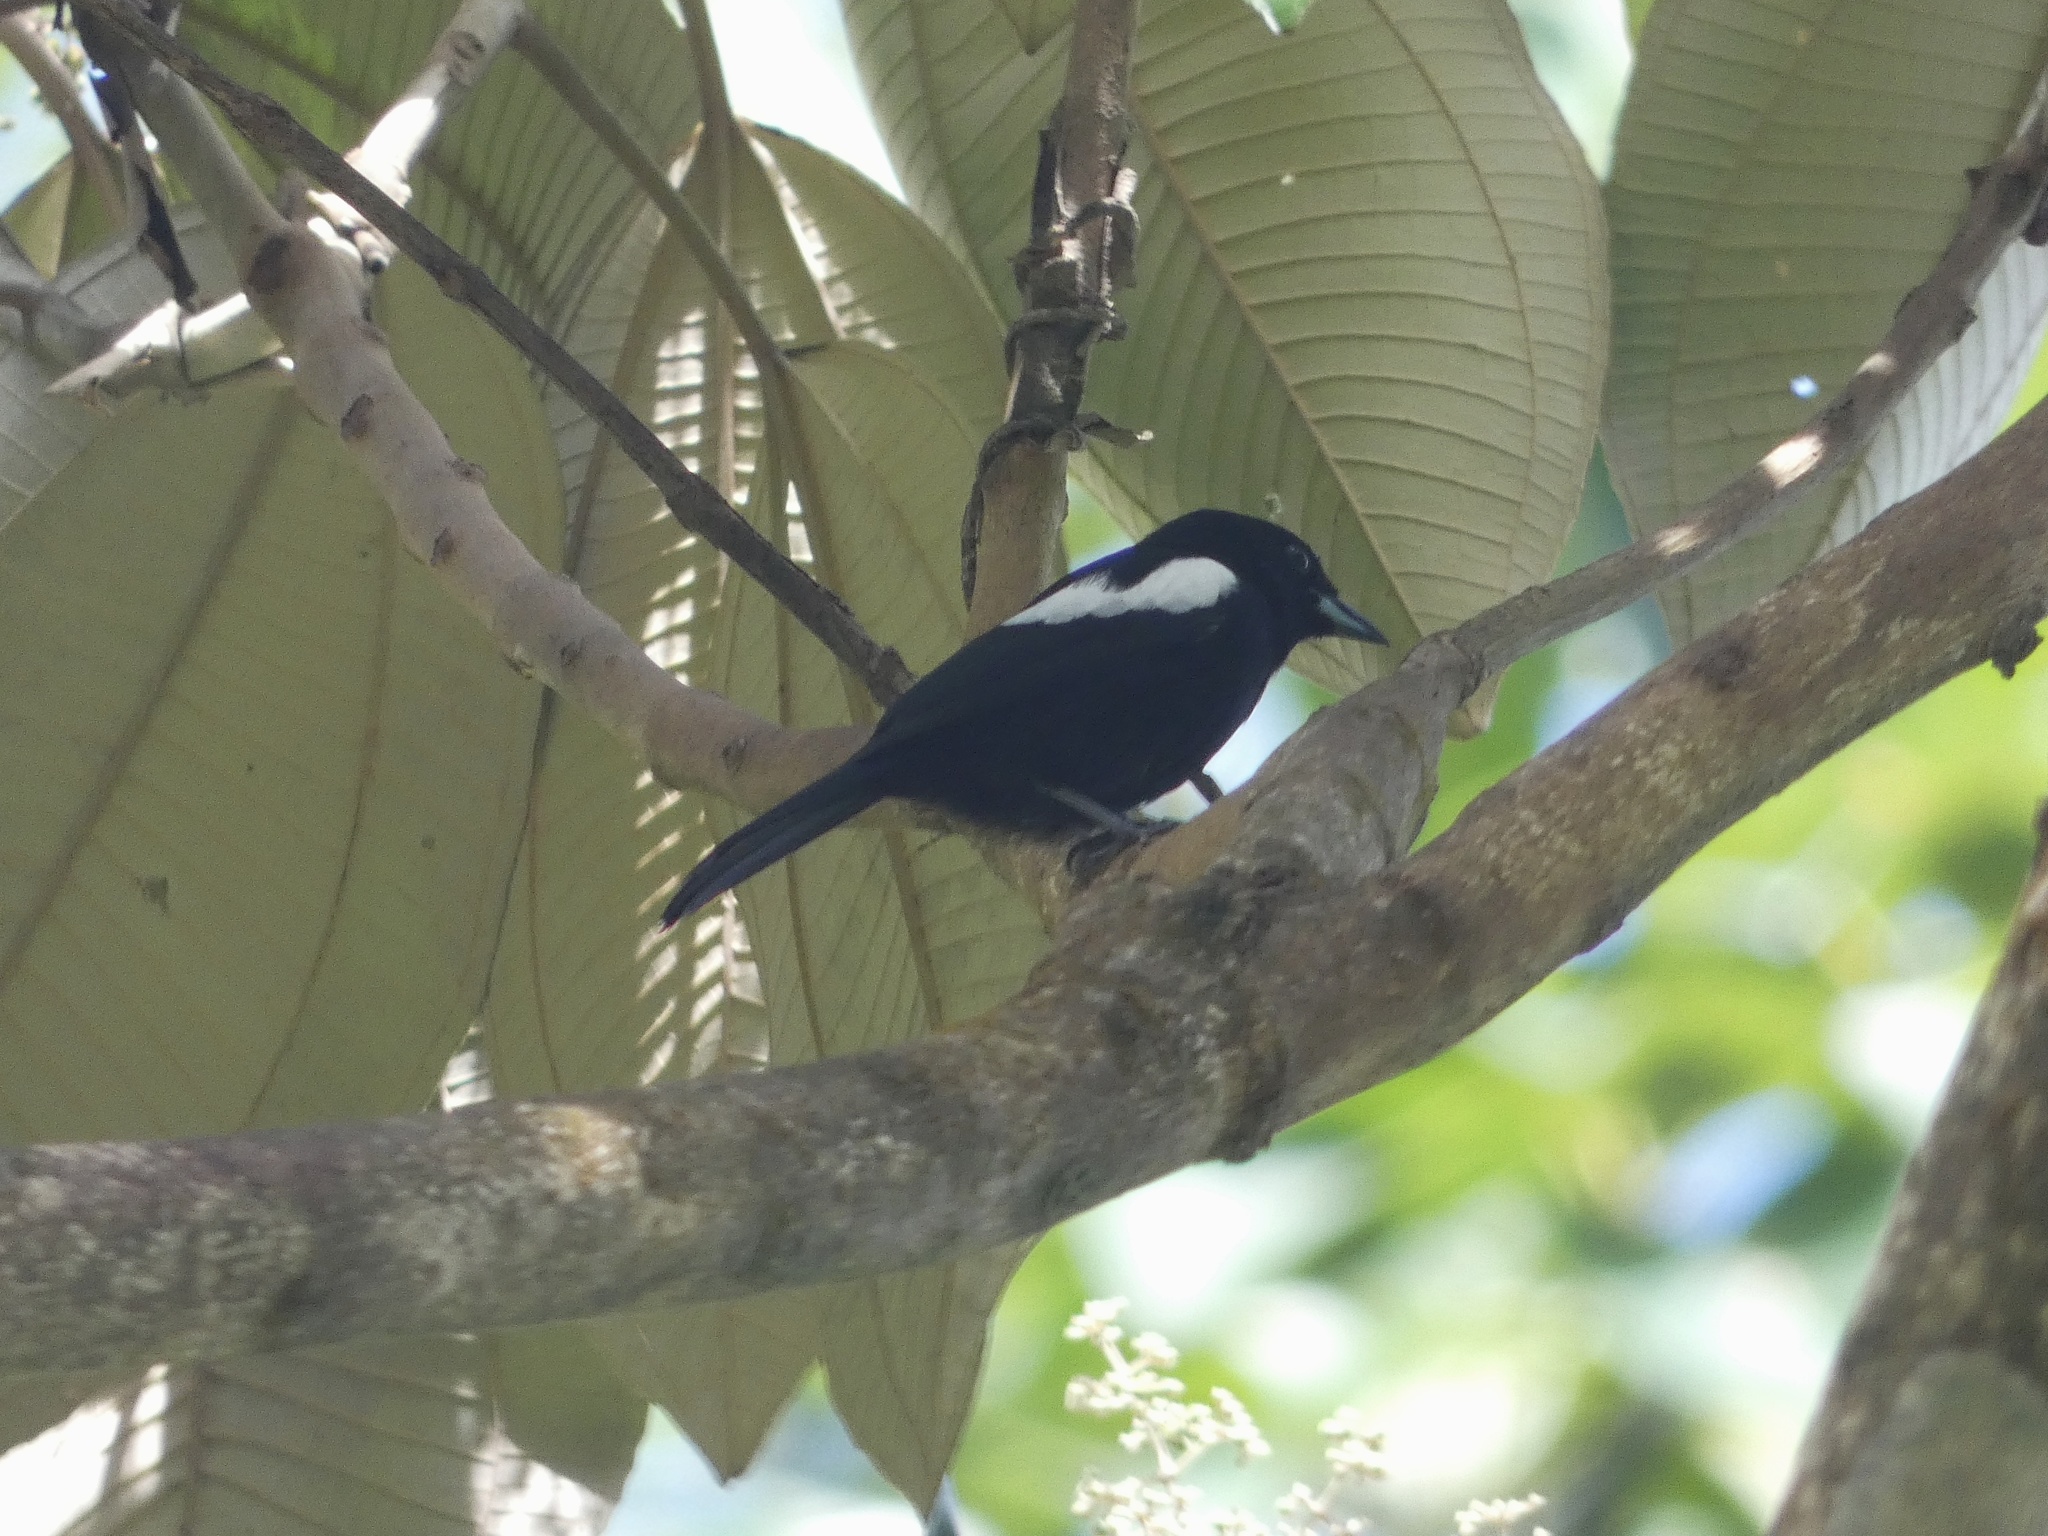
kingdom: Animalia
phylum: Chordata
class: Aves
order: Passeriformes
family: Thraupidae
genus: Loriotus
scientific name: Loriotus luctuosus
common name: White-shouldered tanager
